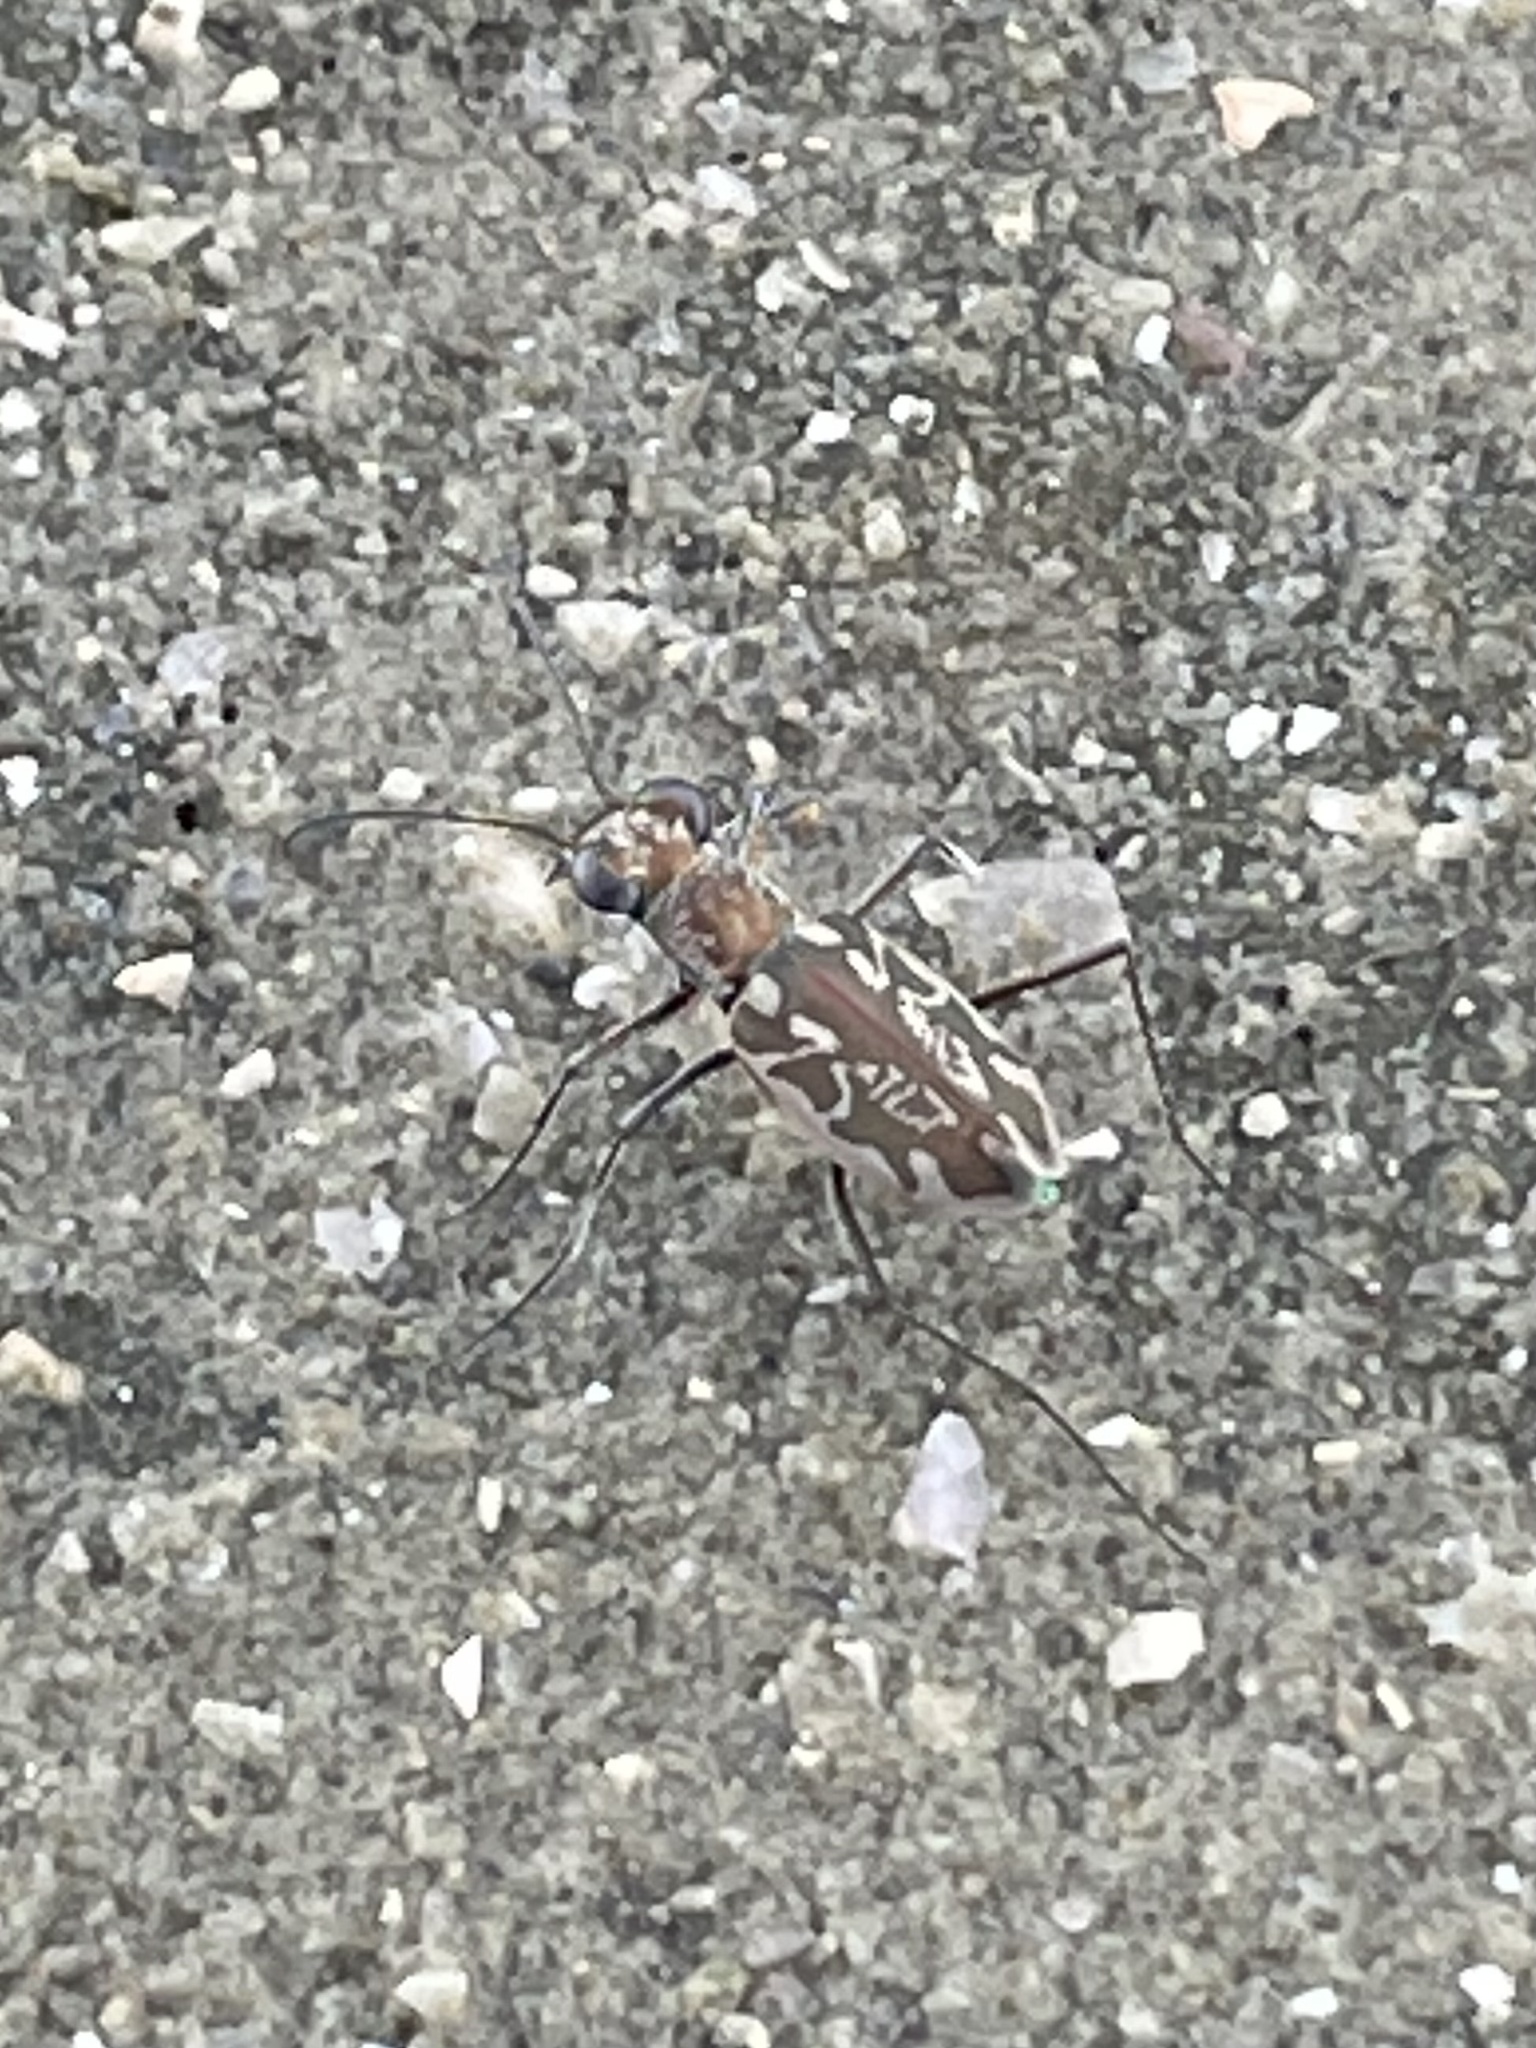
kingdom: Animalia
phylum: Arthropoda
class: Insecta
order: Coleoptera
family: Carabidae
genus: Ellipsoptera
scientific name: Ellipsoptera hamata
